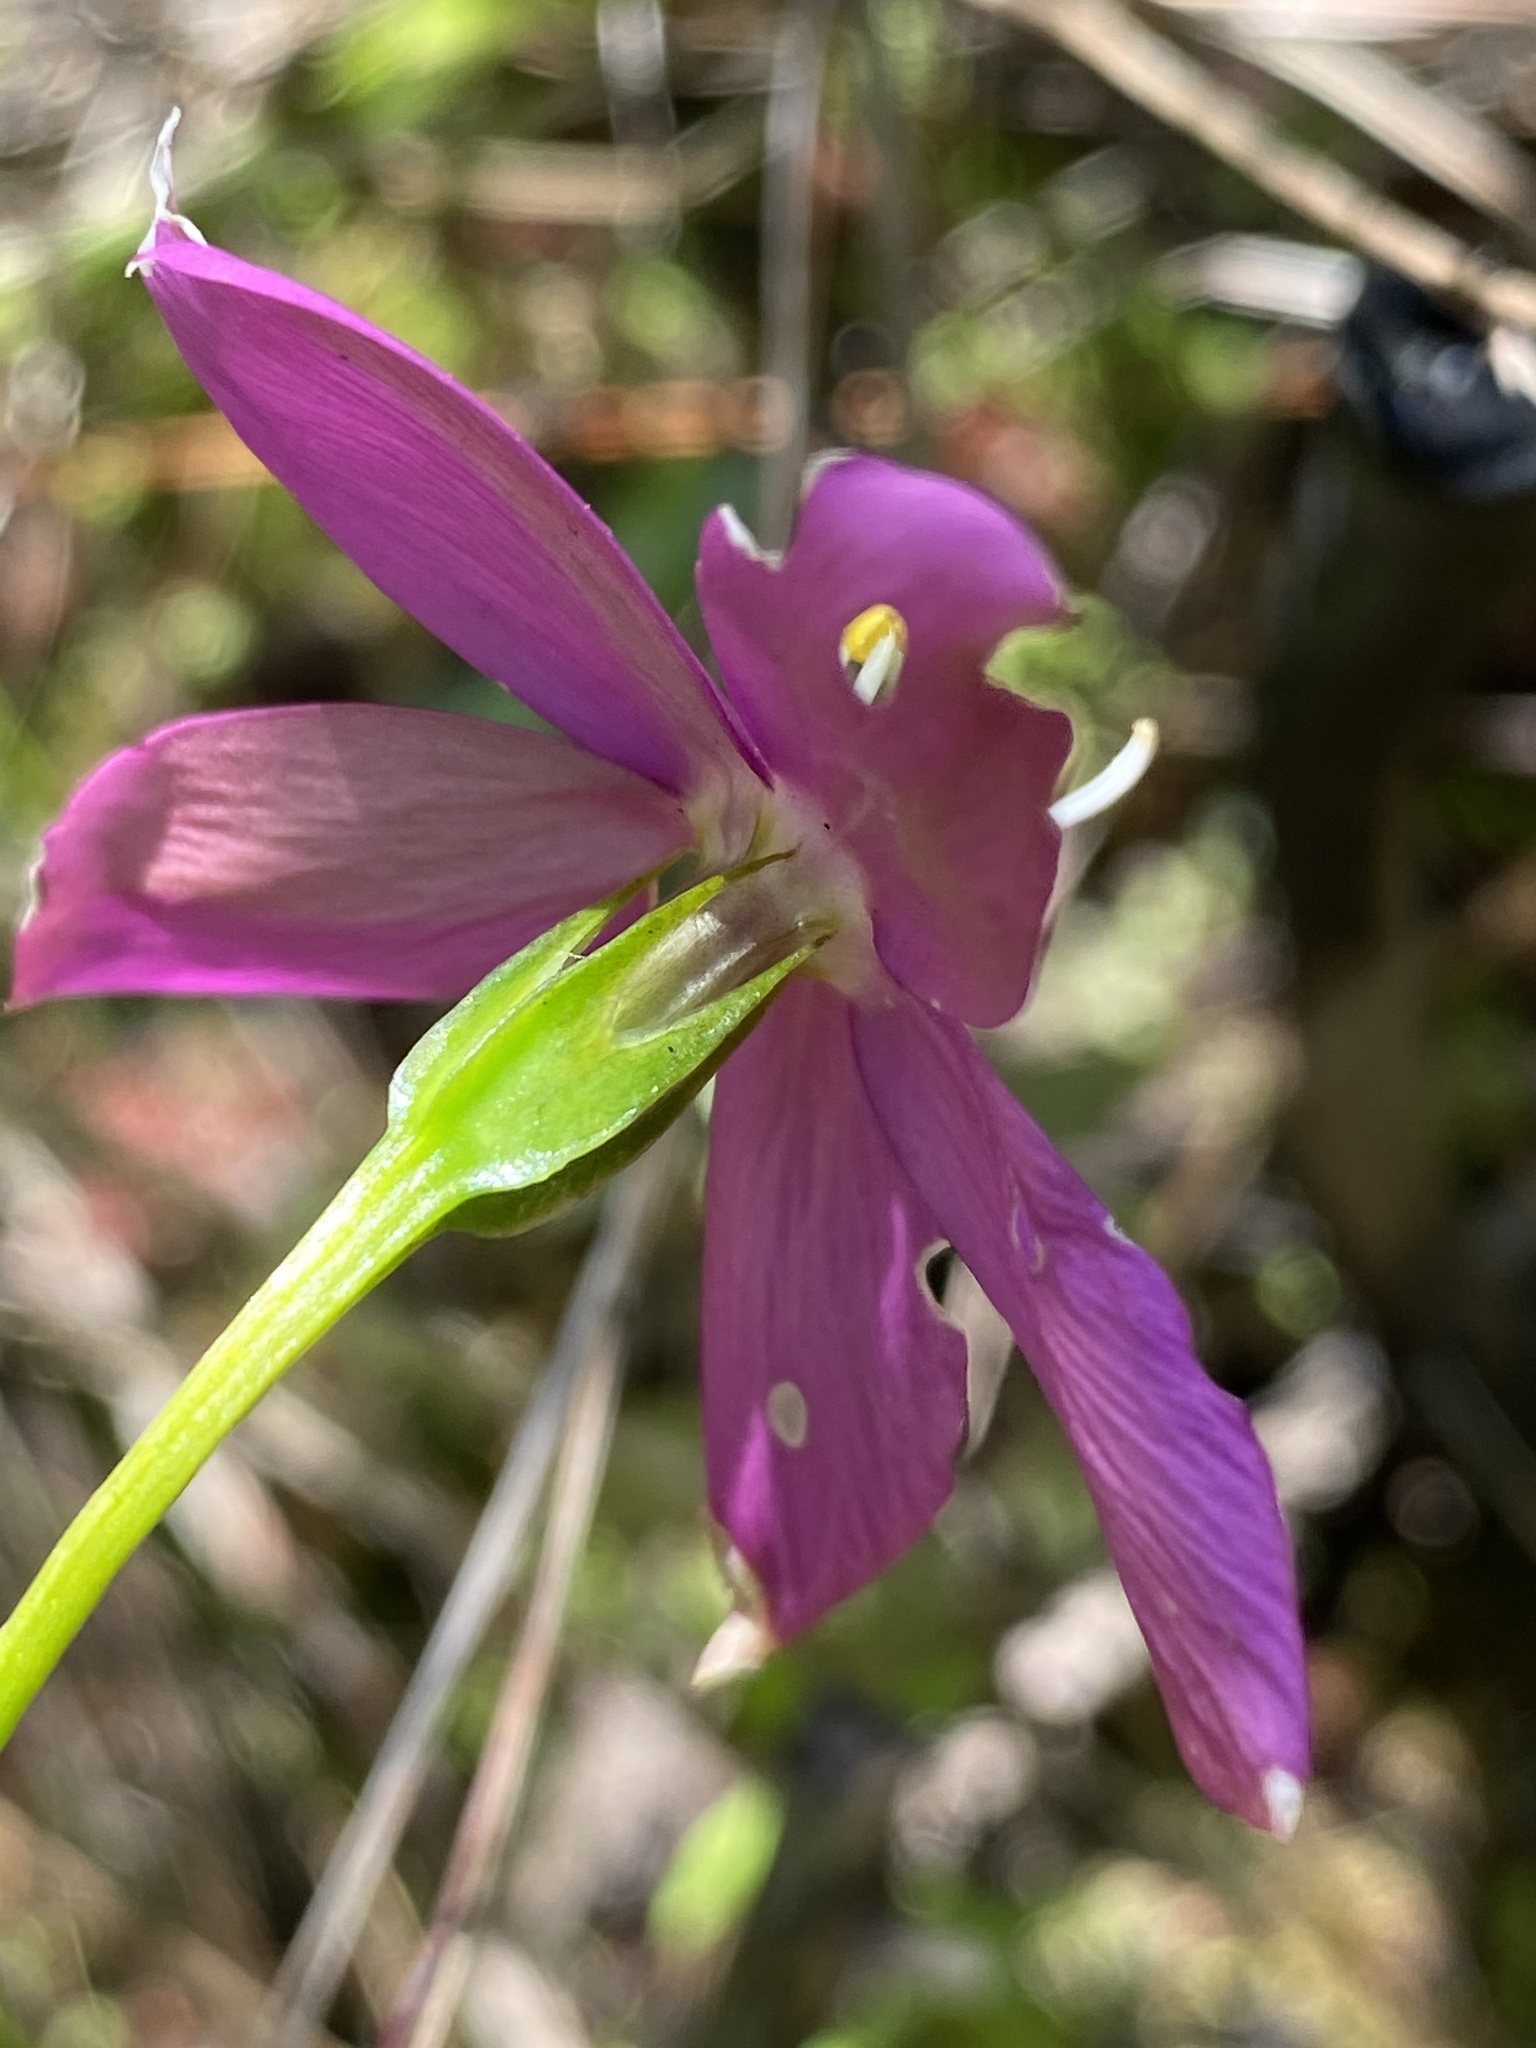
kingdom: Plantae
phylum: Tracheophyta
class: Magnoliopsida
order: Gentianales
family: Gentianaceae
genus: Chironia
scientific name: Chironia melampyrifolia
